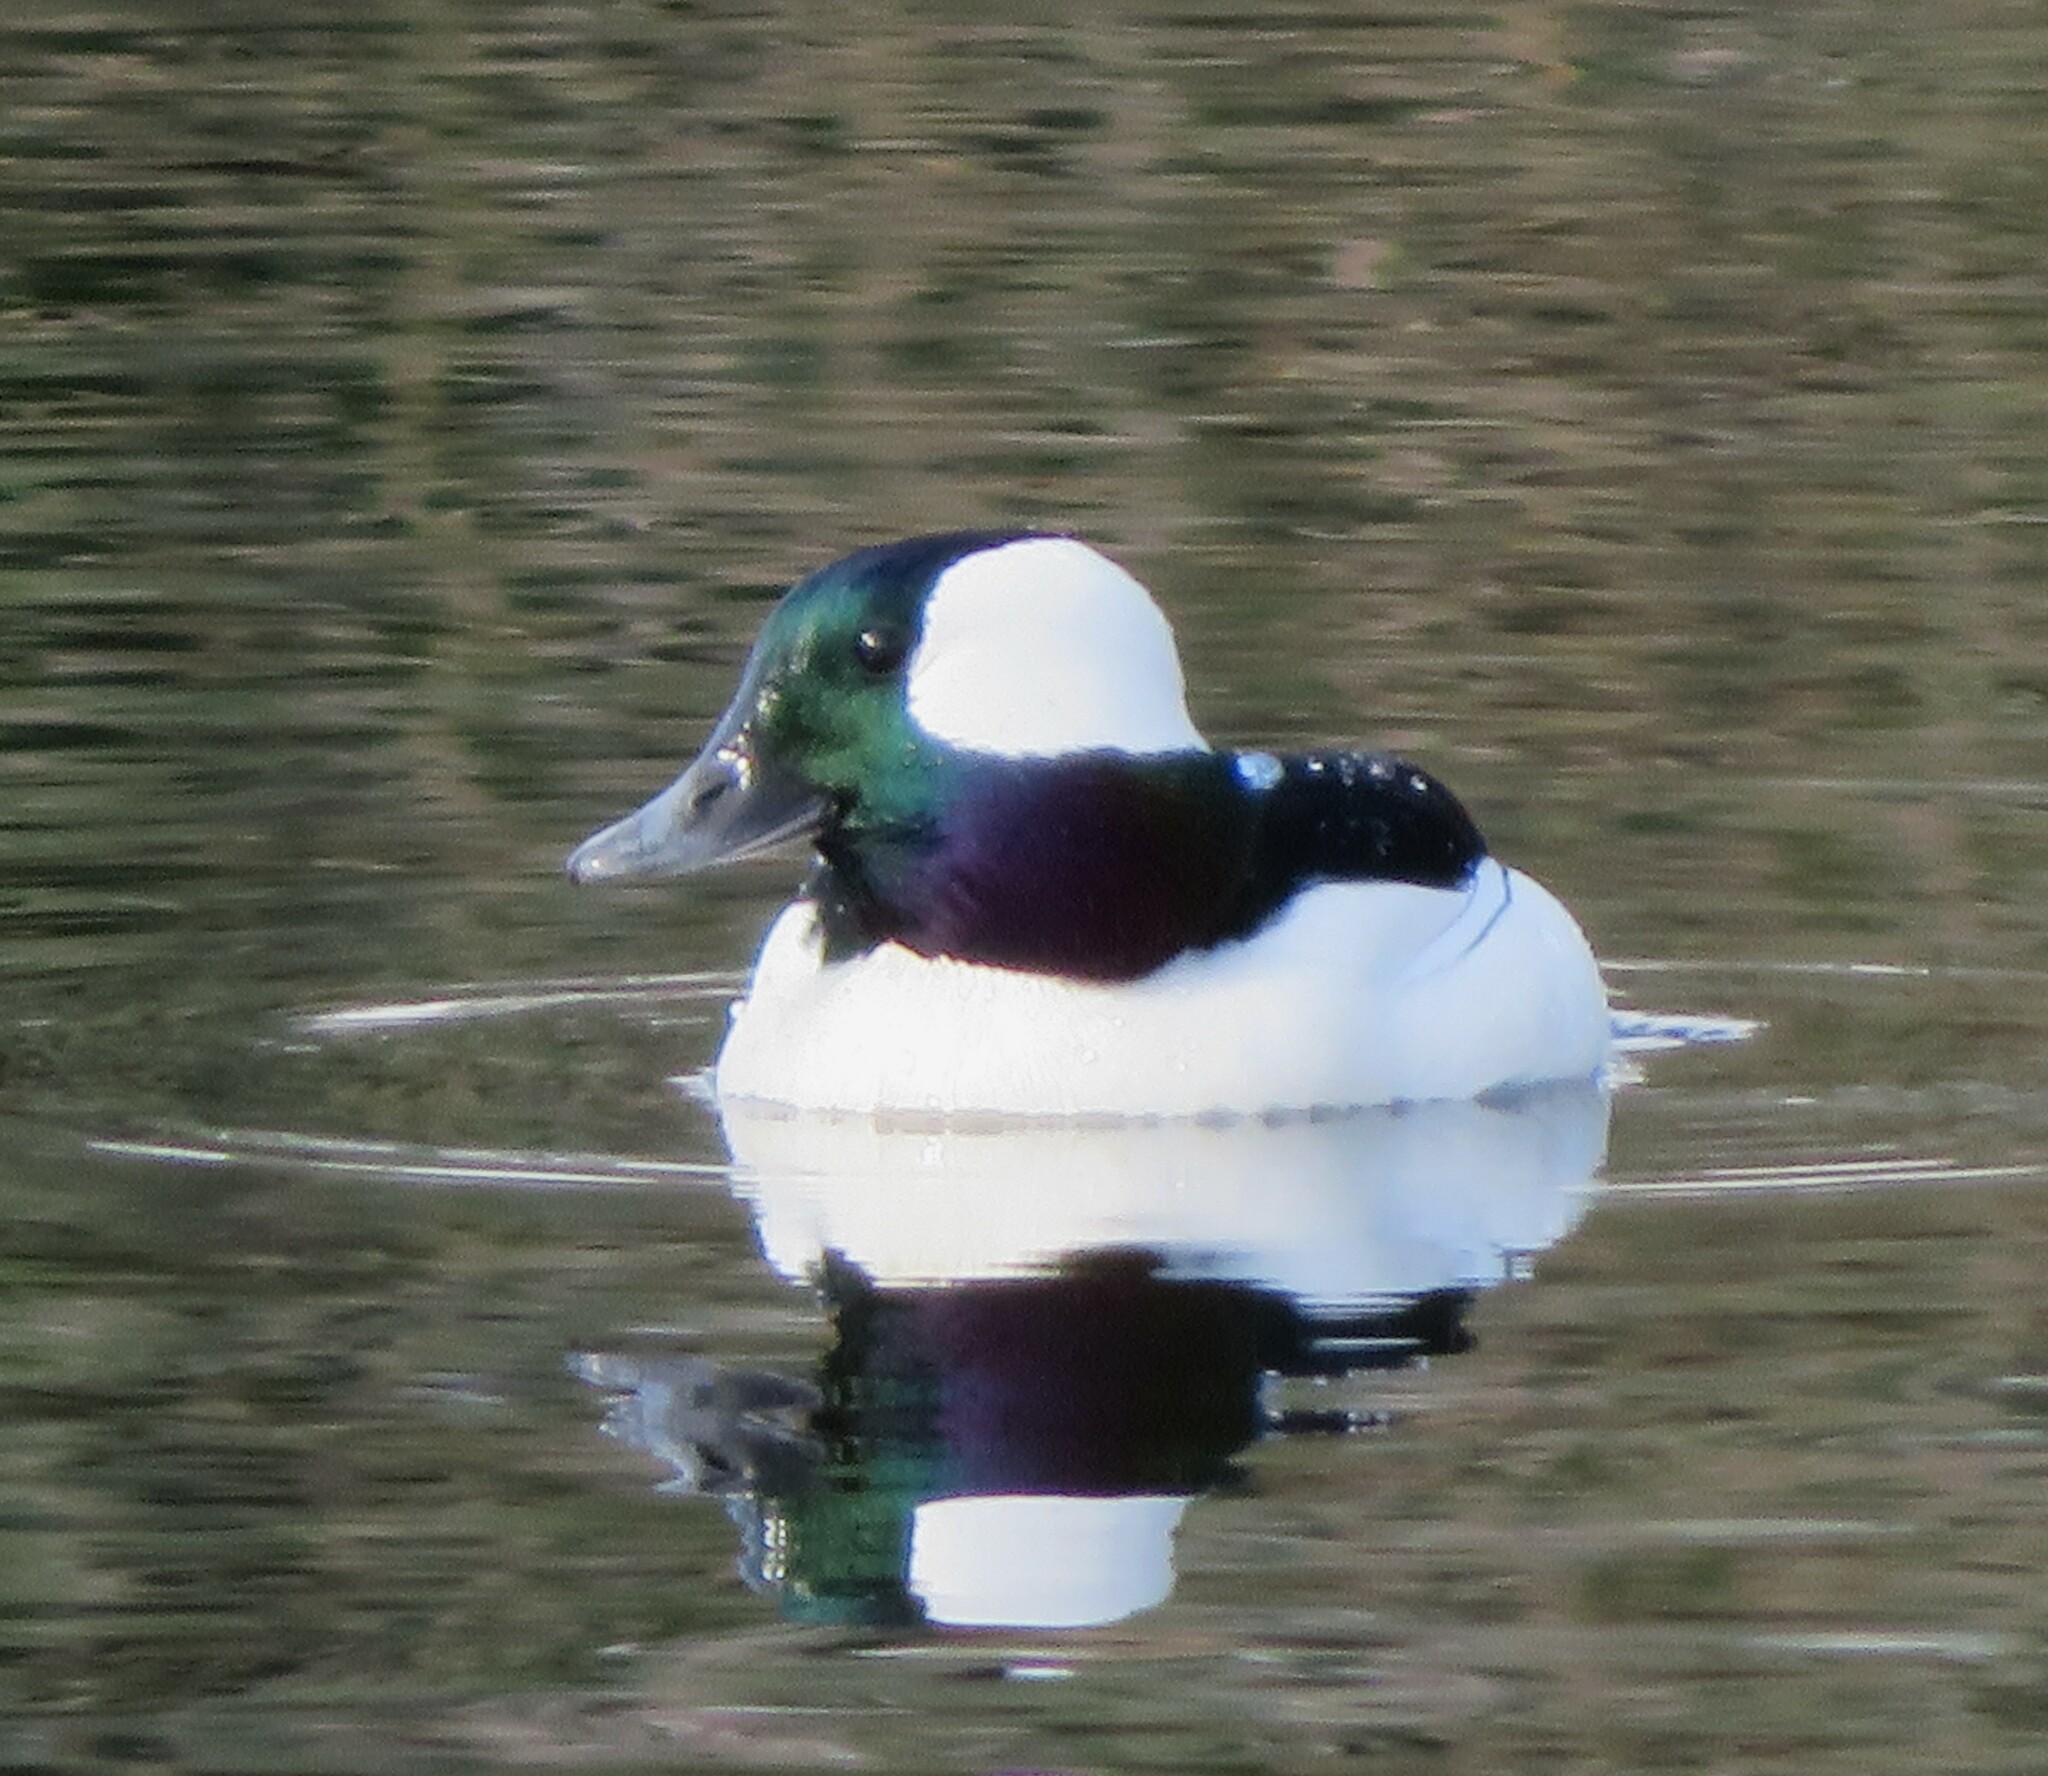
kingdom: Animalia
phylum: Chordata
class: Aves
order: Anseriformes
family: Anatidae
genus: Bucephala
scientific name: Bucephala albeola
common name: Bufflehead
